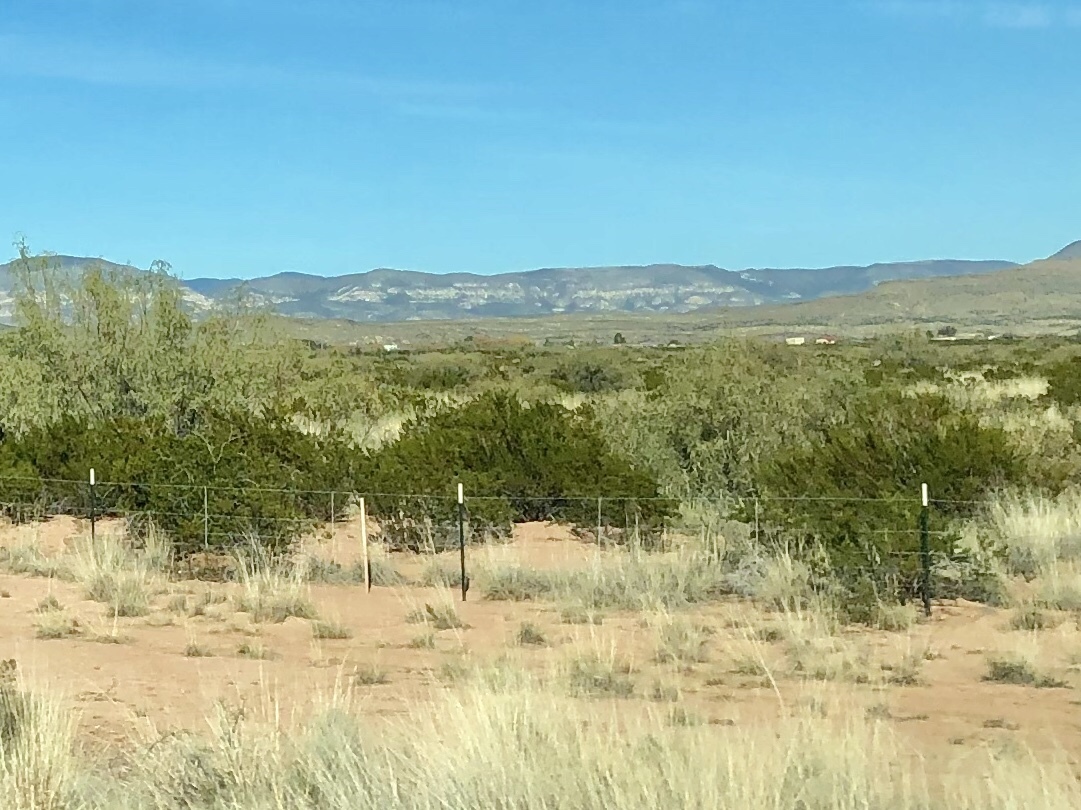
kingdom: Plantae
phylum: Tracheophyta
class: Magnoliopsida
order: Zygophyllales
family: Zygophyllaceae
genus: Larrea
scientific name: Larrea tridentata
